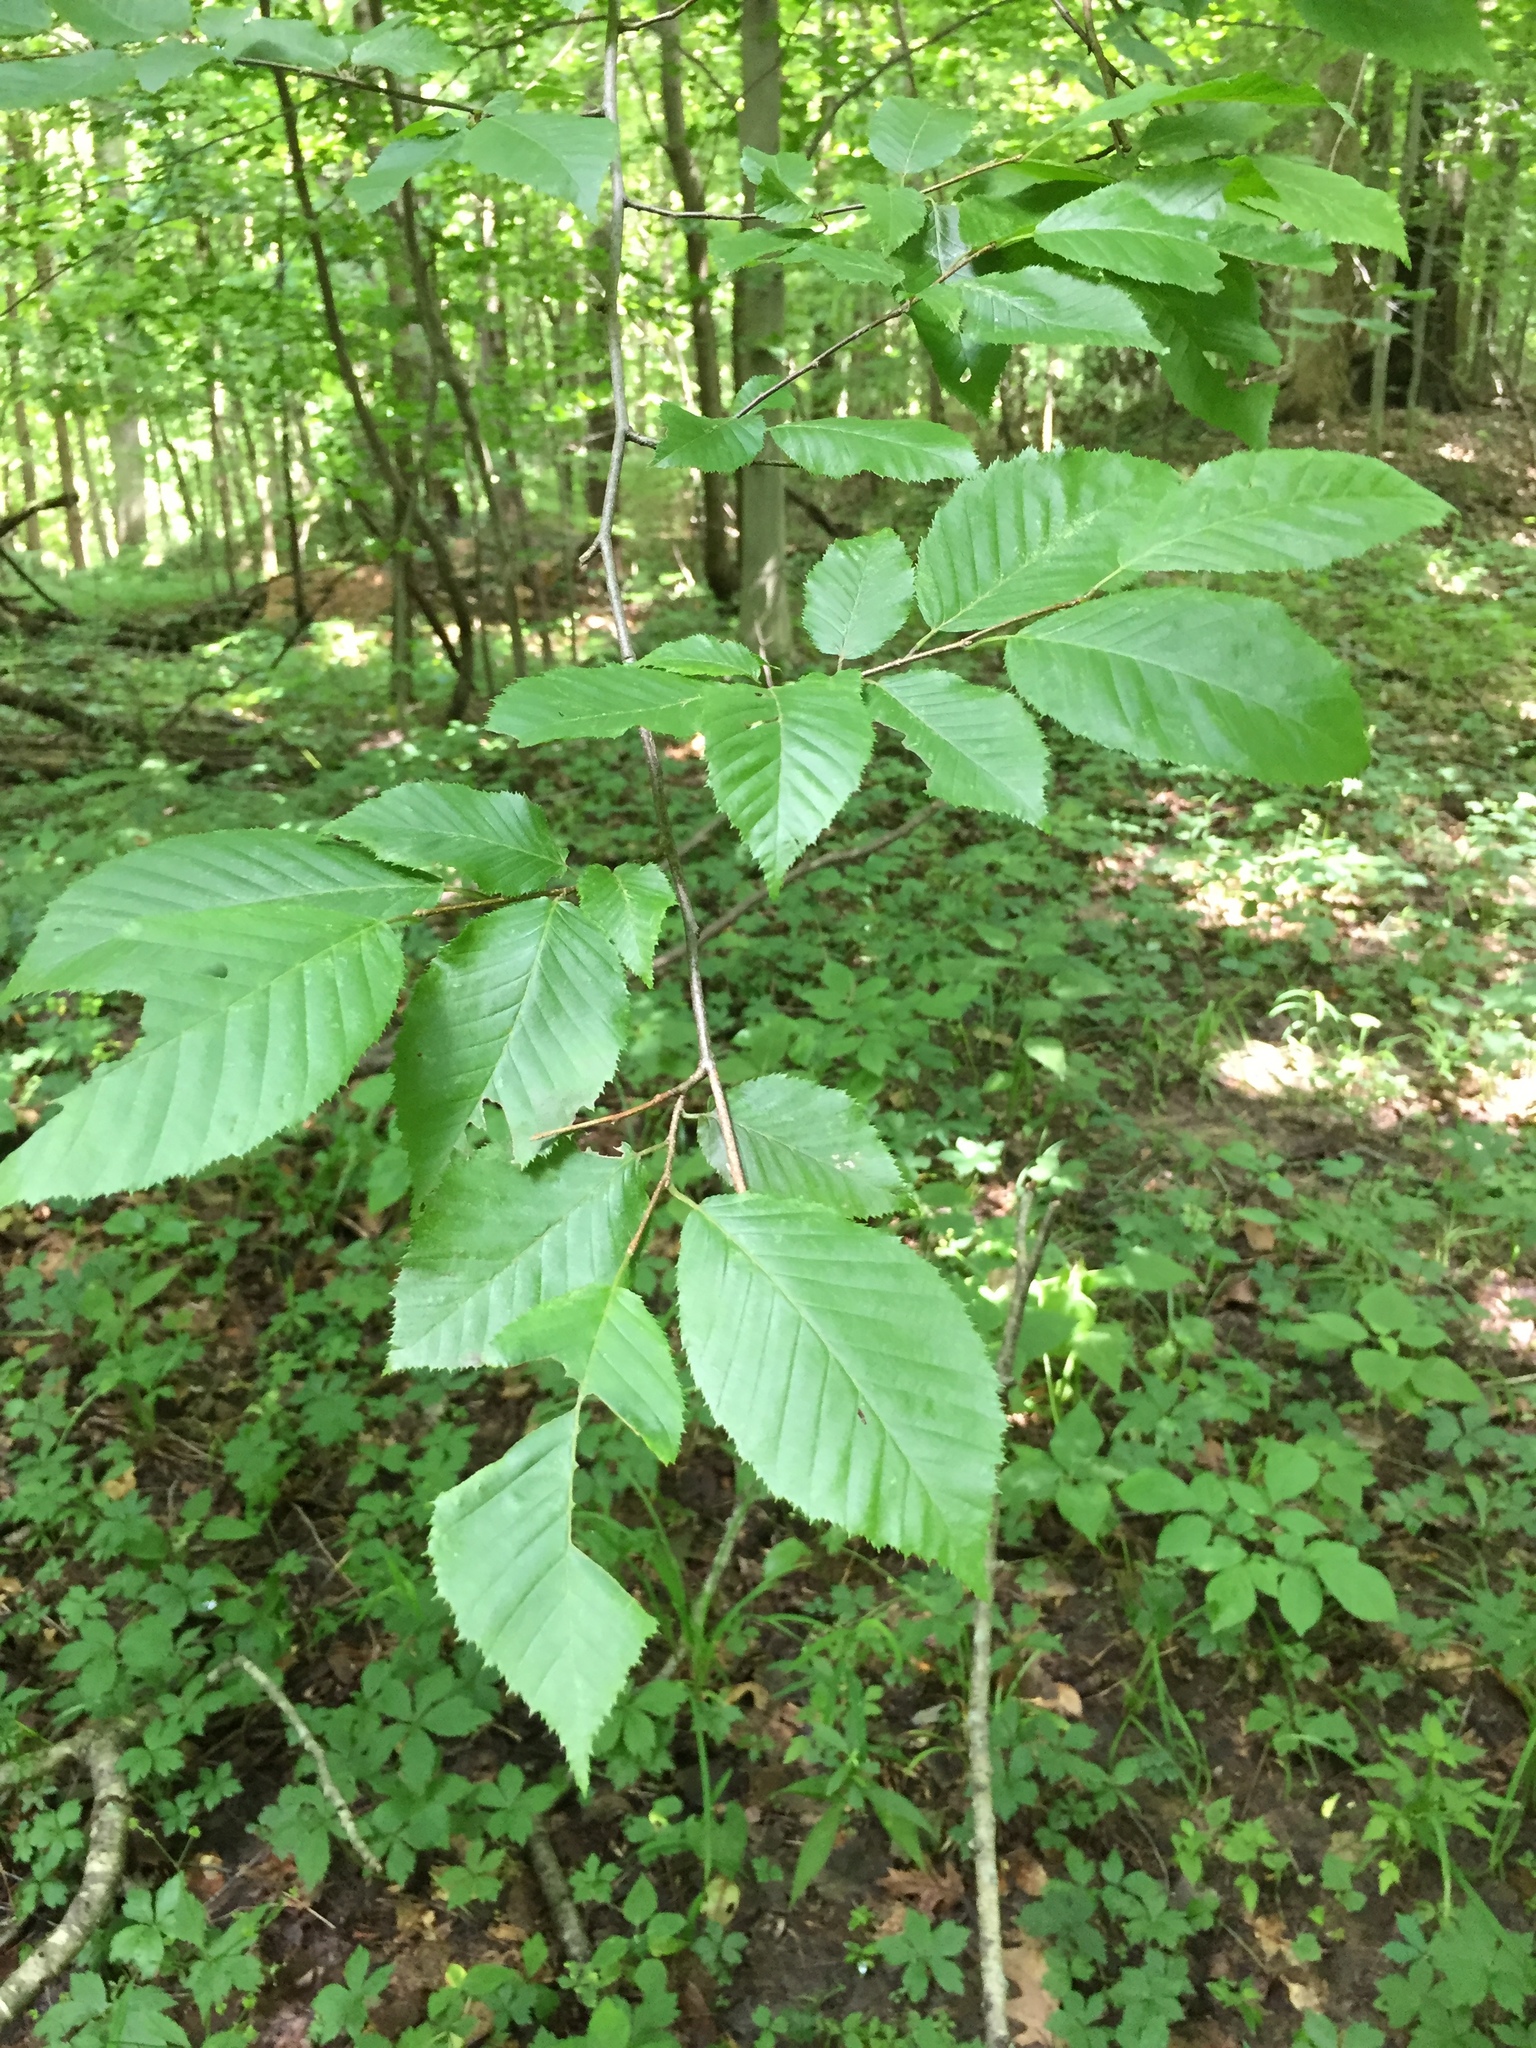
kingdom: Plantae
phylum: Tracheophyta
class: Magnoliopsida
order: Fagales
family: Betulaceae
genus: Carpinus
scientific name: Carpinus caroliniana
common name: American hornbeam
